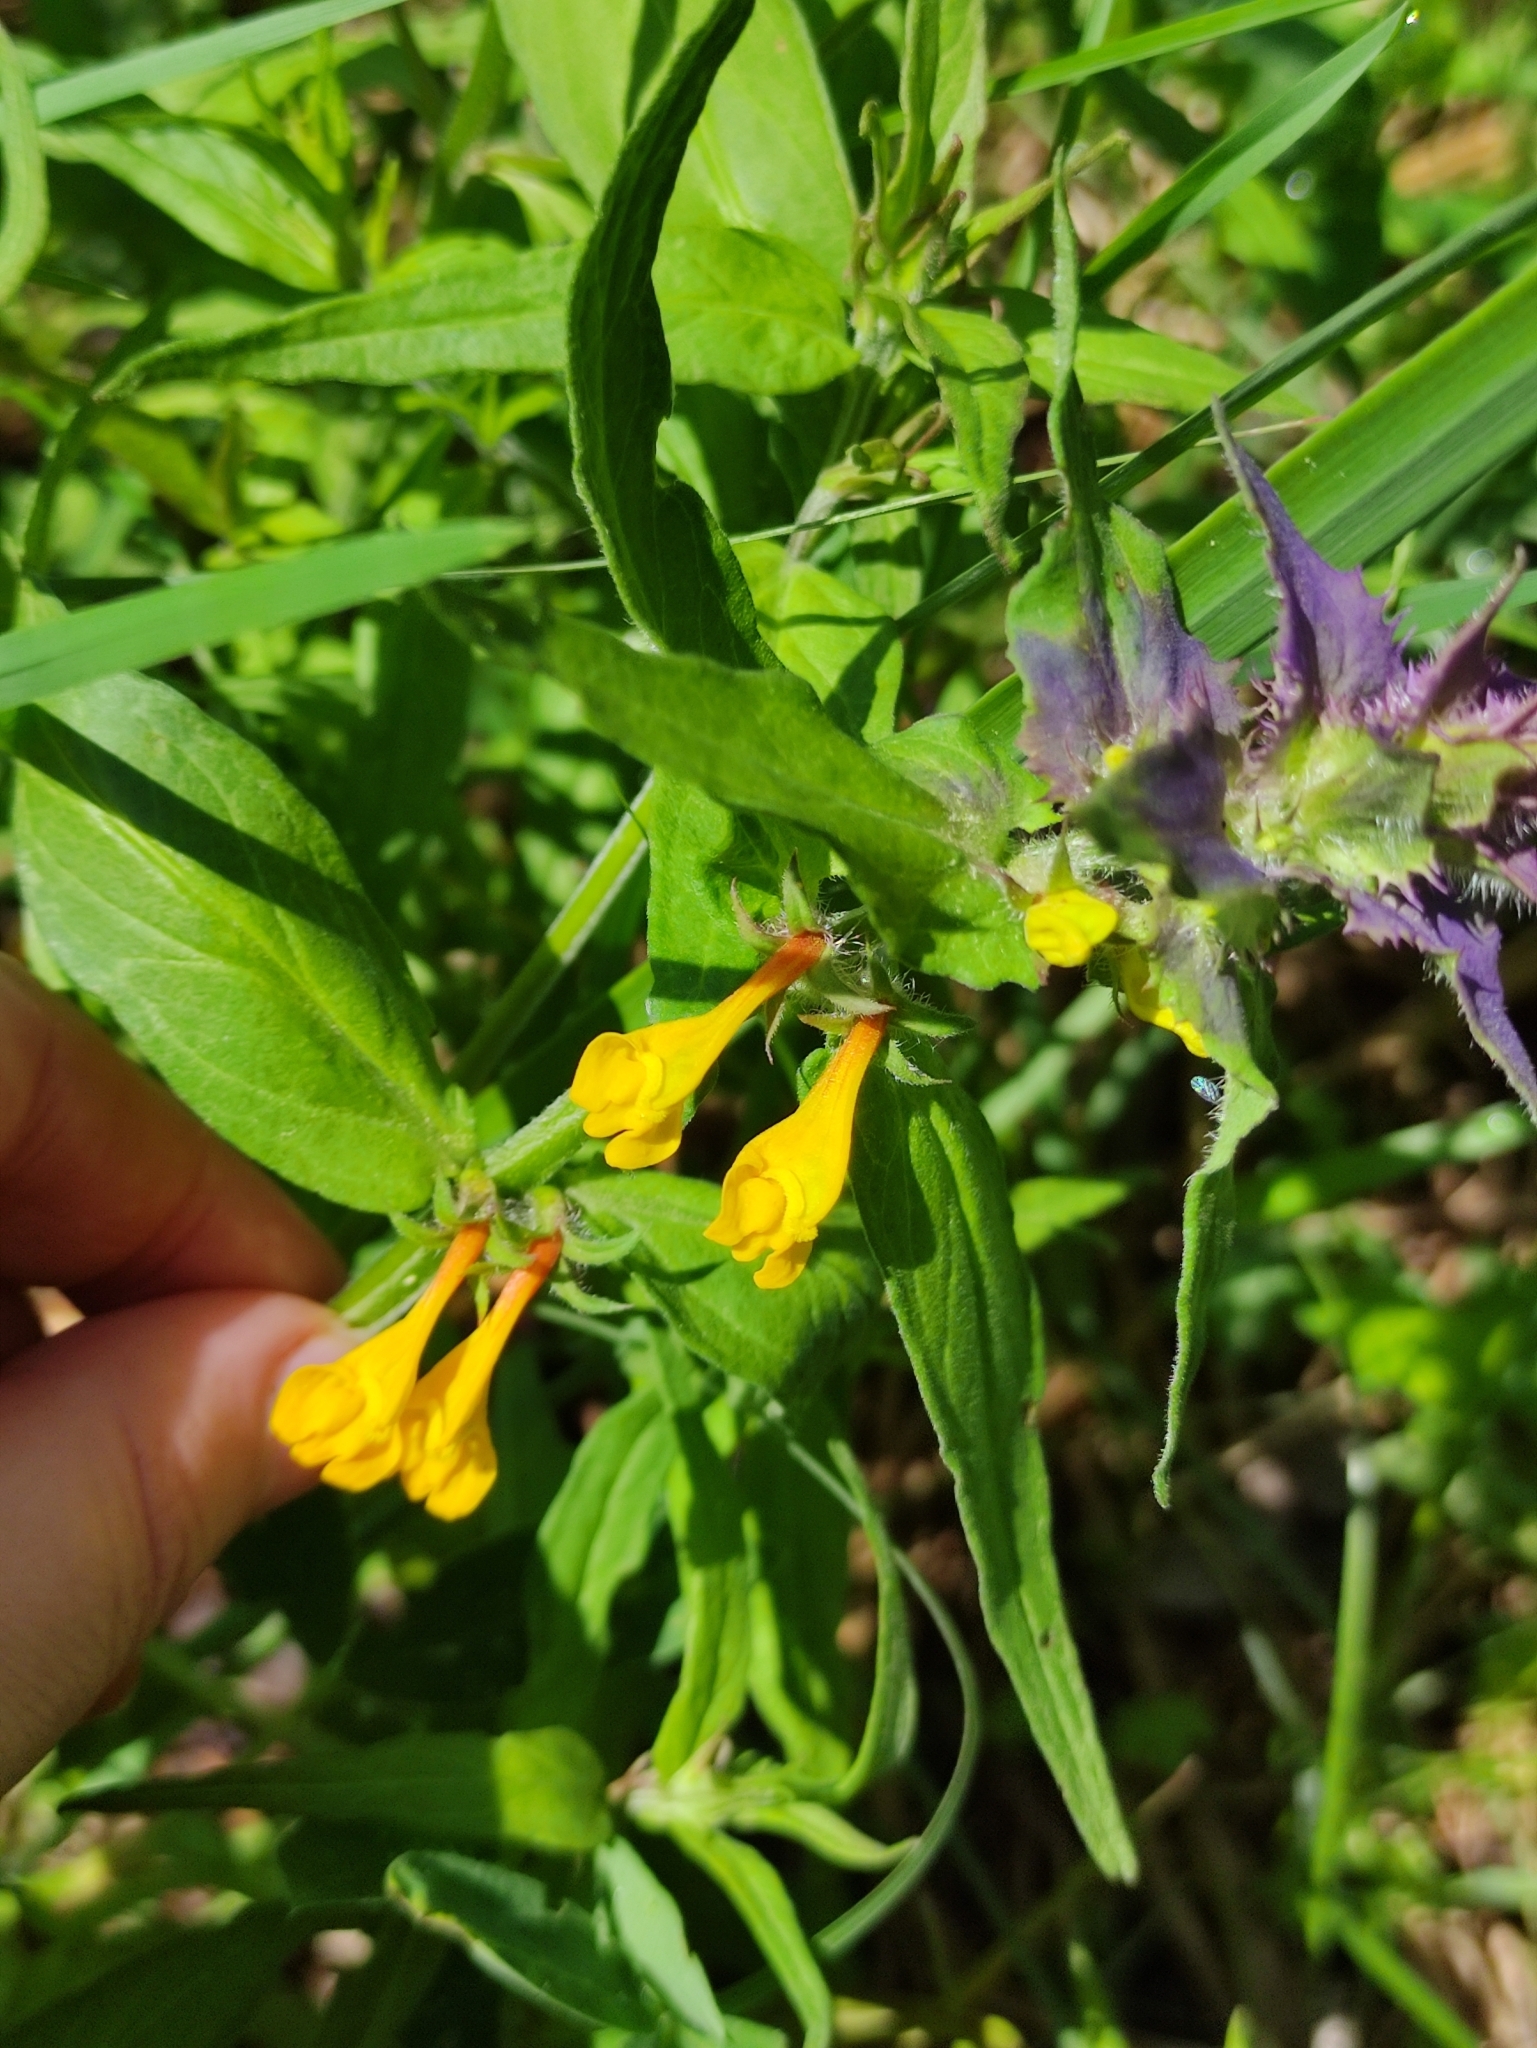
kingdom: Plantae
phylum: Tracheophyta
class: Magnoliopsida
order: Lamiales
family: Orobanchaceae
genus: Melampyrum
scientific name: Melampyrum nemorosum
